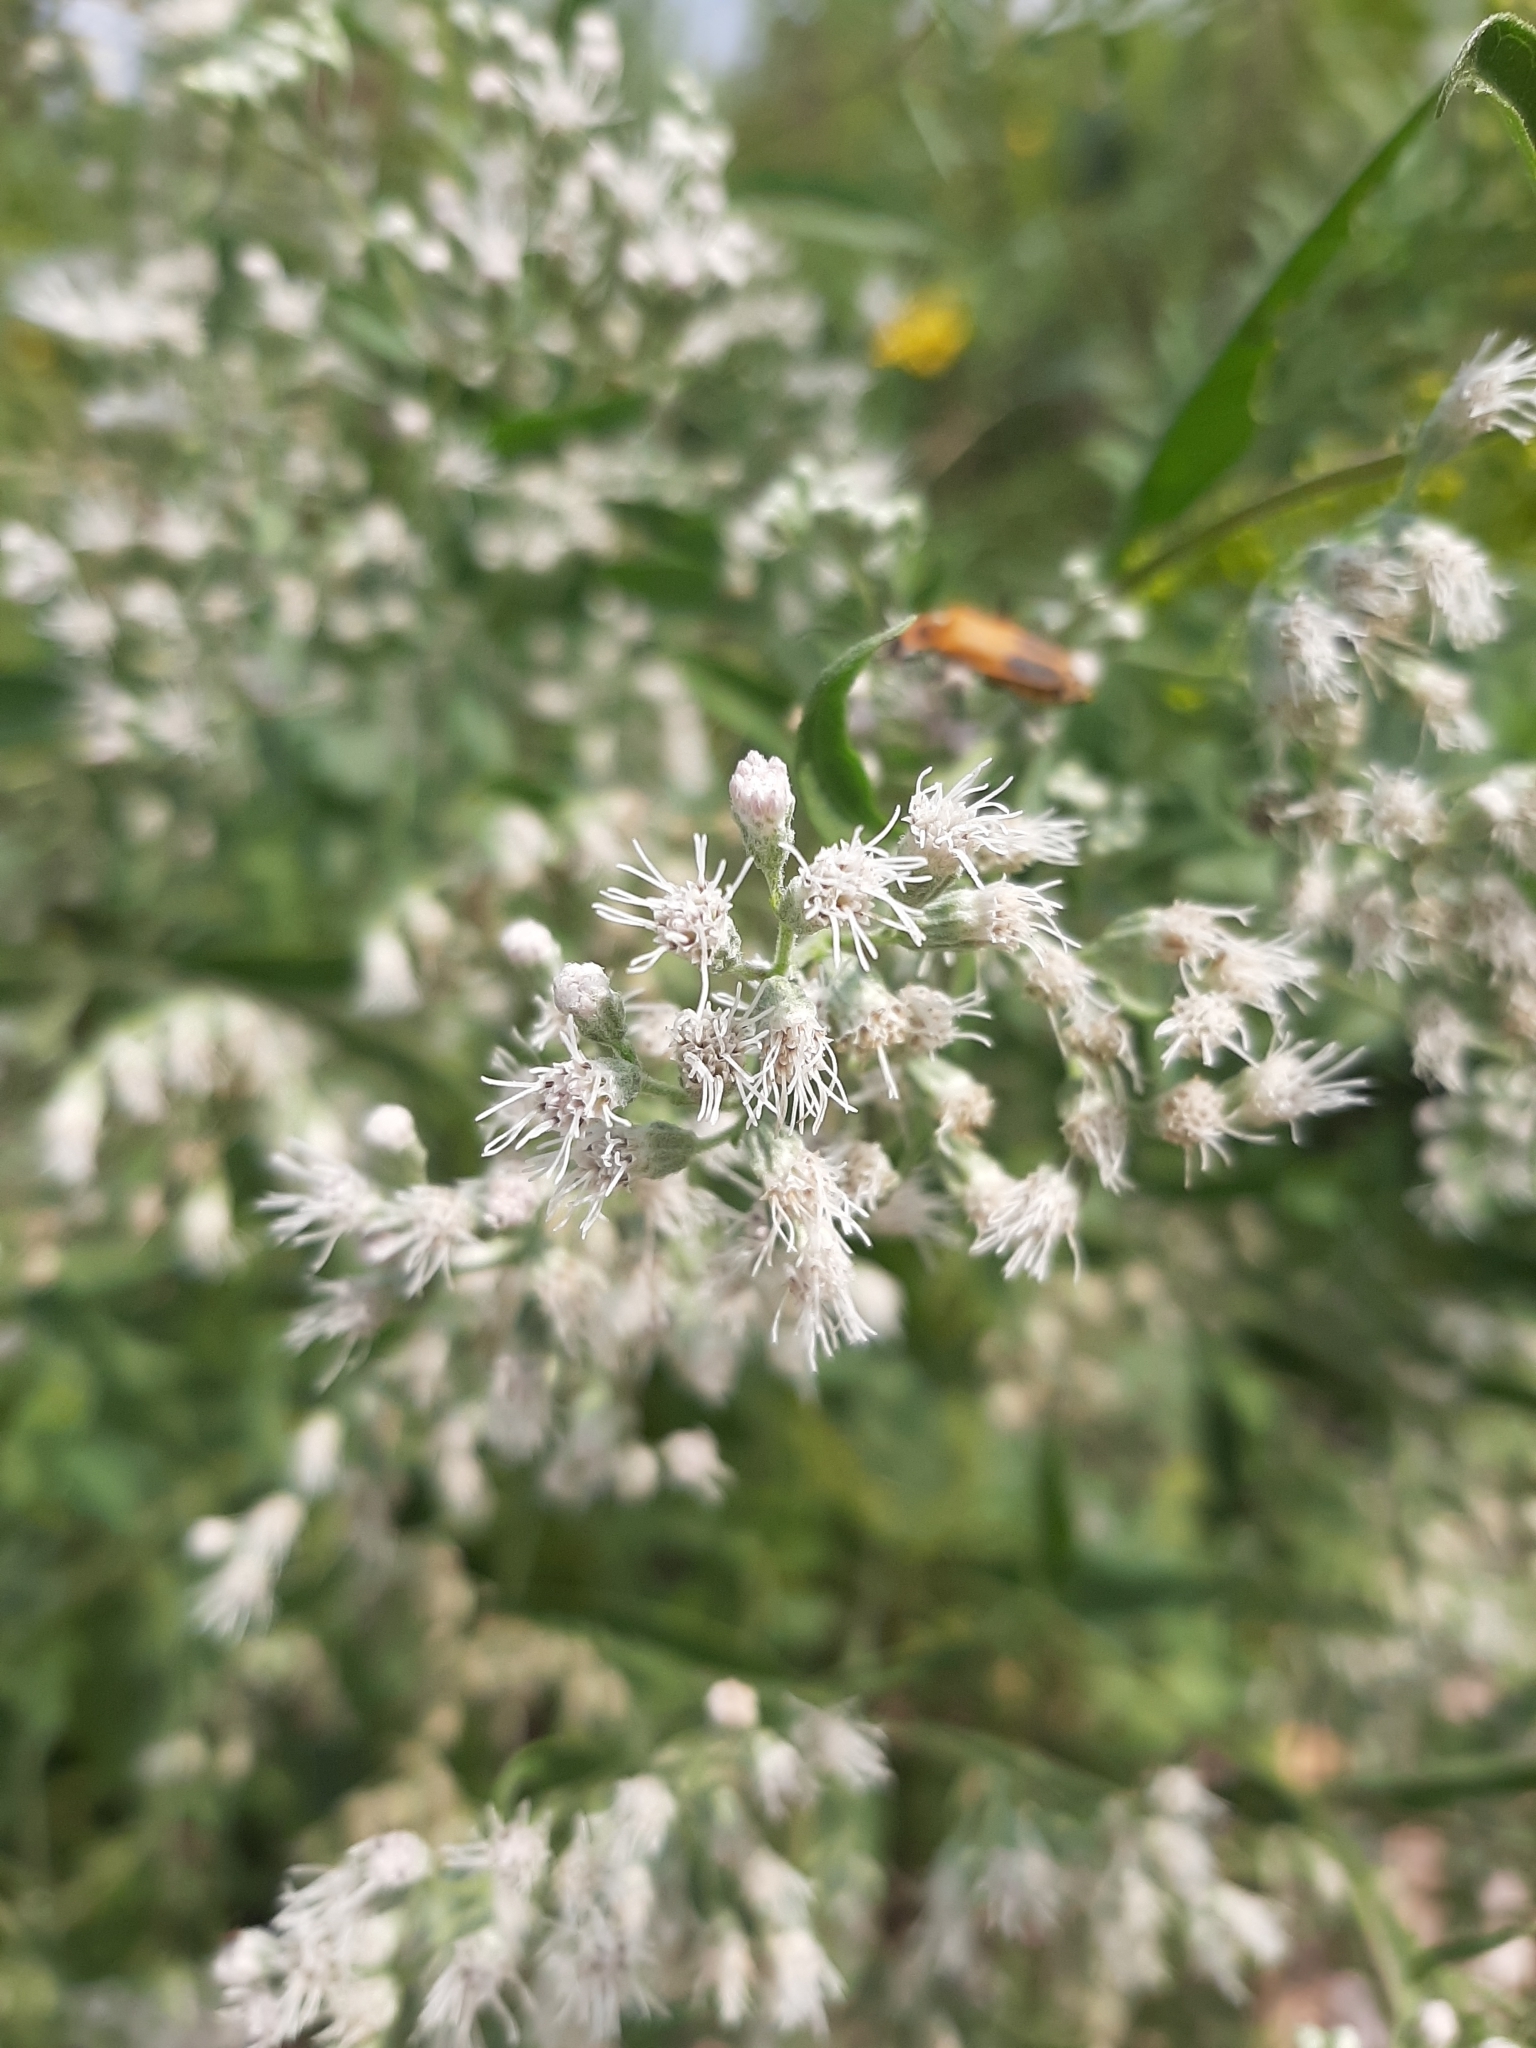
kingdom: Plantae
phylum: Tracheophyta
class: Magnoliopsida
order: Asterales
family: Asteraceae
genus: Eupatorium
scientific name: Eupatorium serotinum
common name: Late boneset
